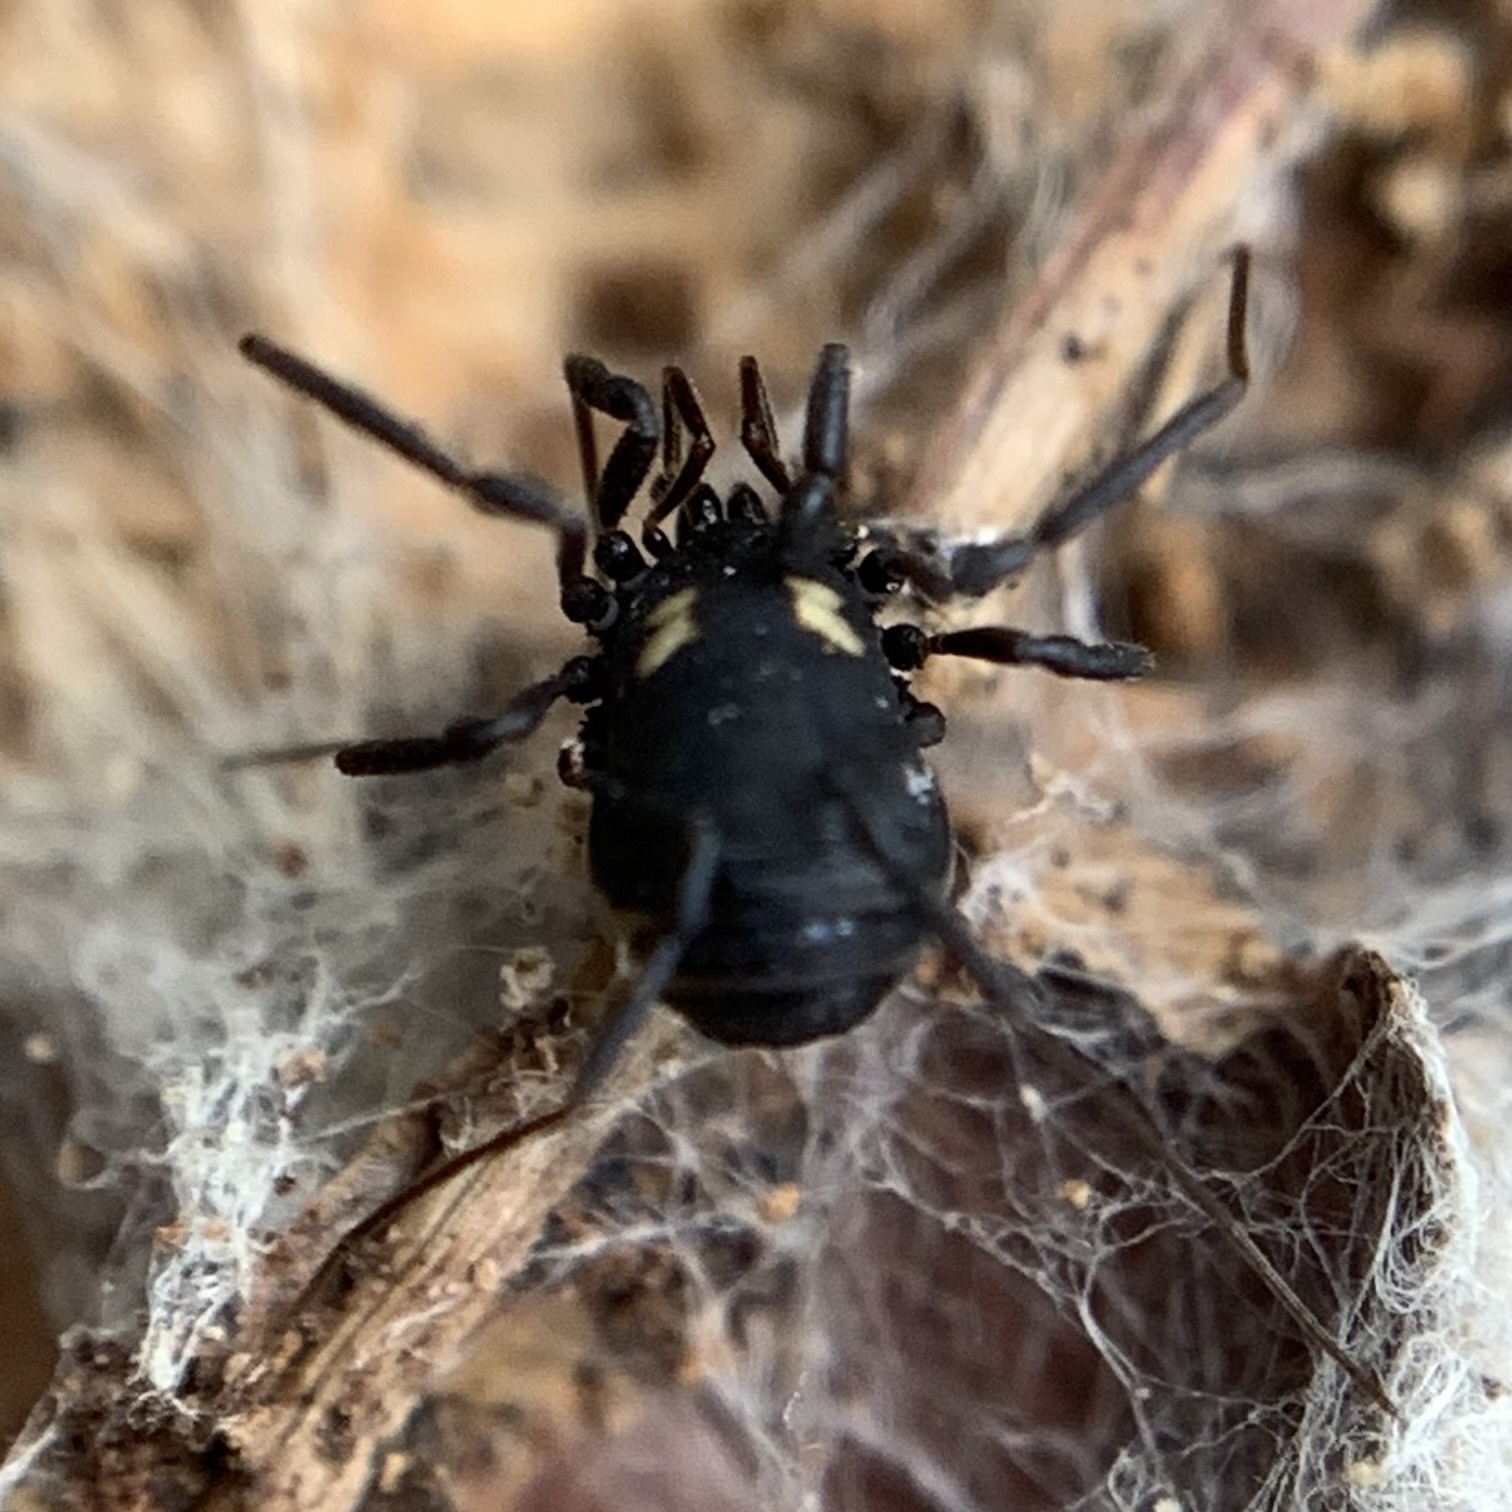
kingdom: Animalia
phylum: Arthropoda
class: Arachnida
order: Opiliones
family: Nemastomatidae
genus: Nemastoma
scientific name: Nemastoma bimaculatum
